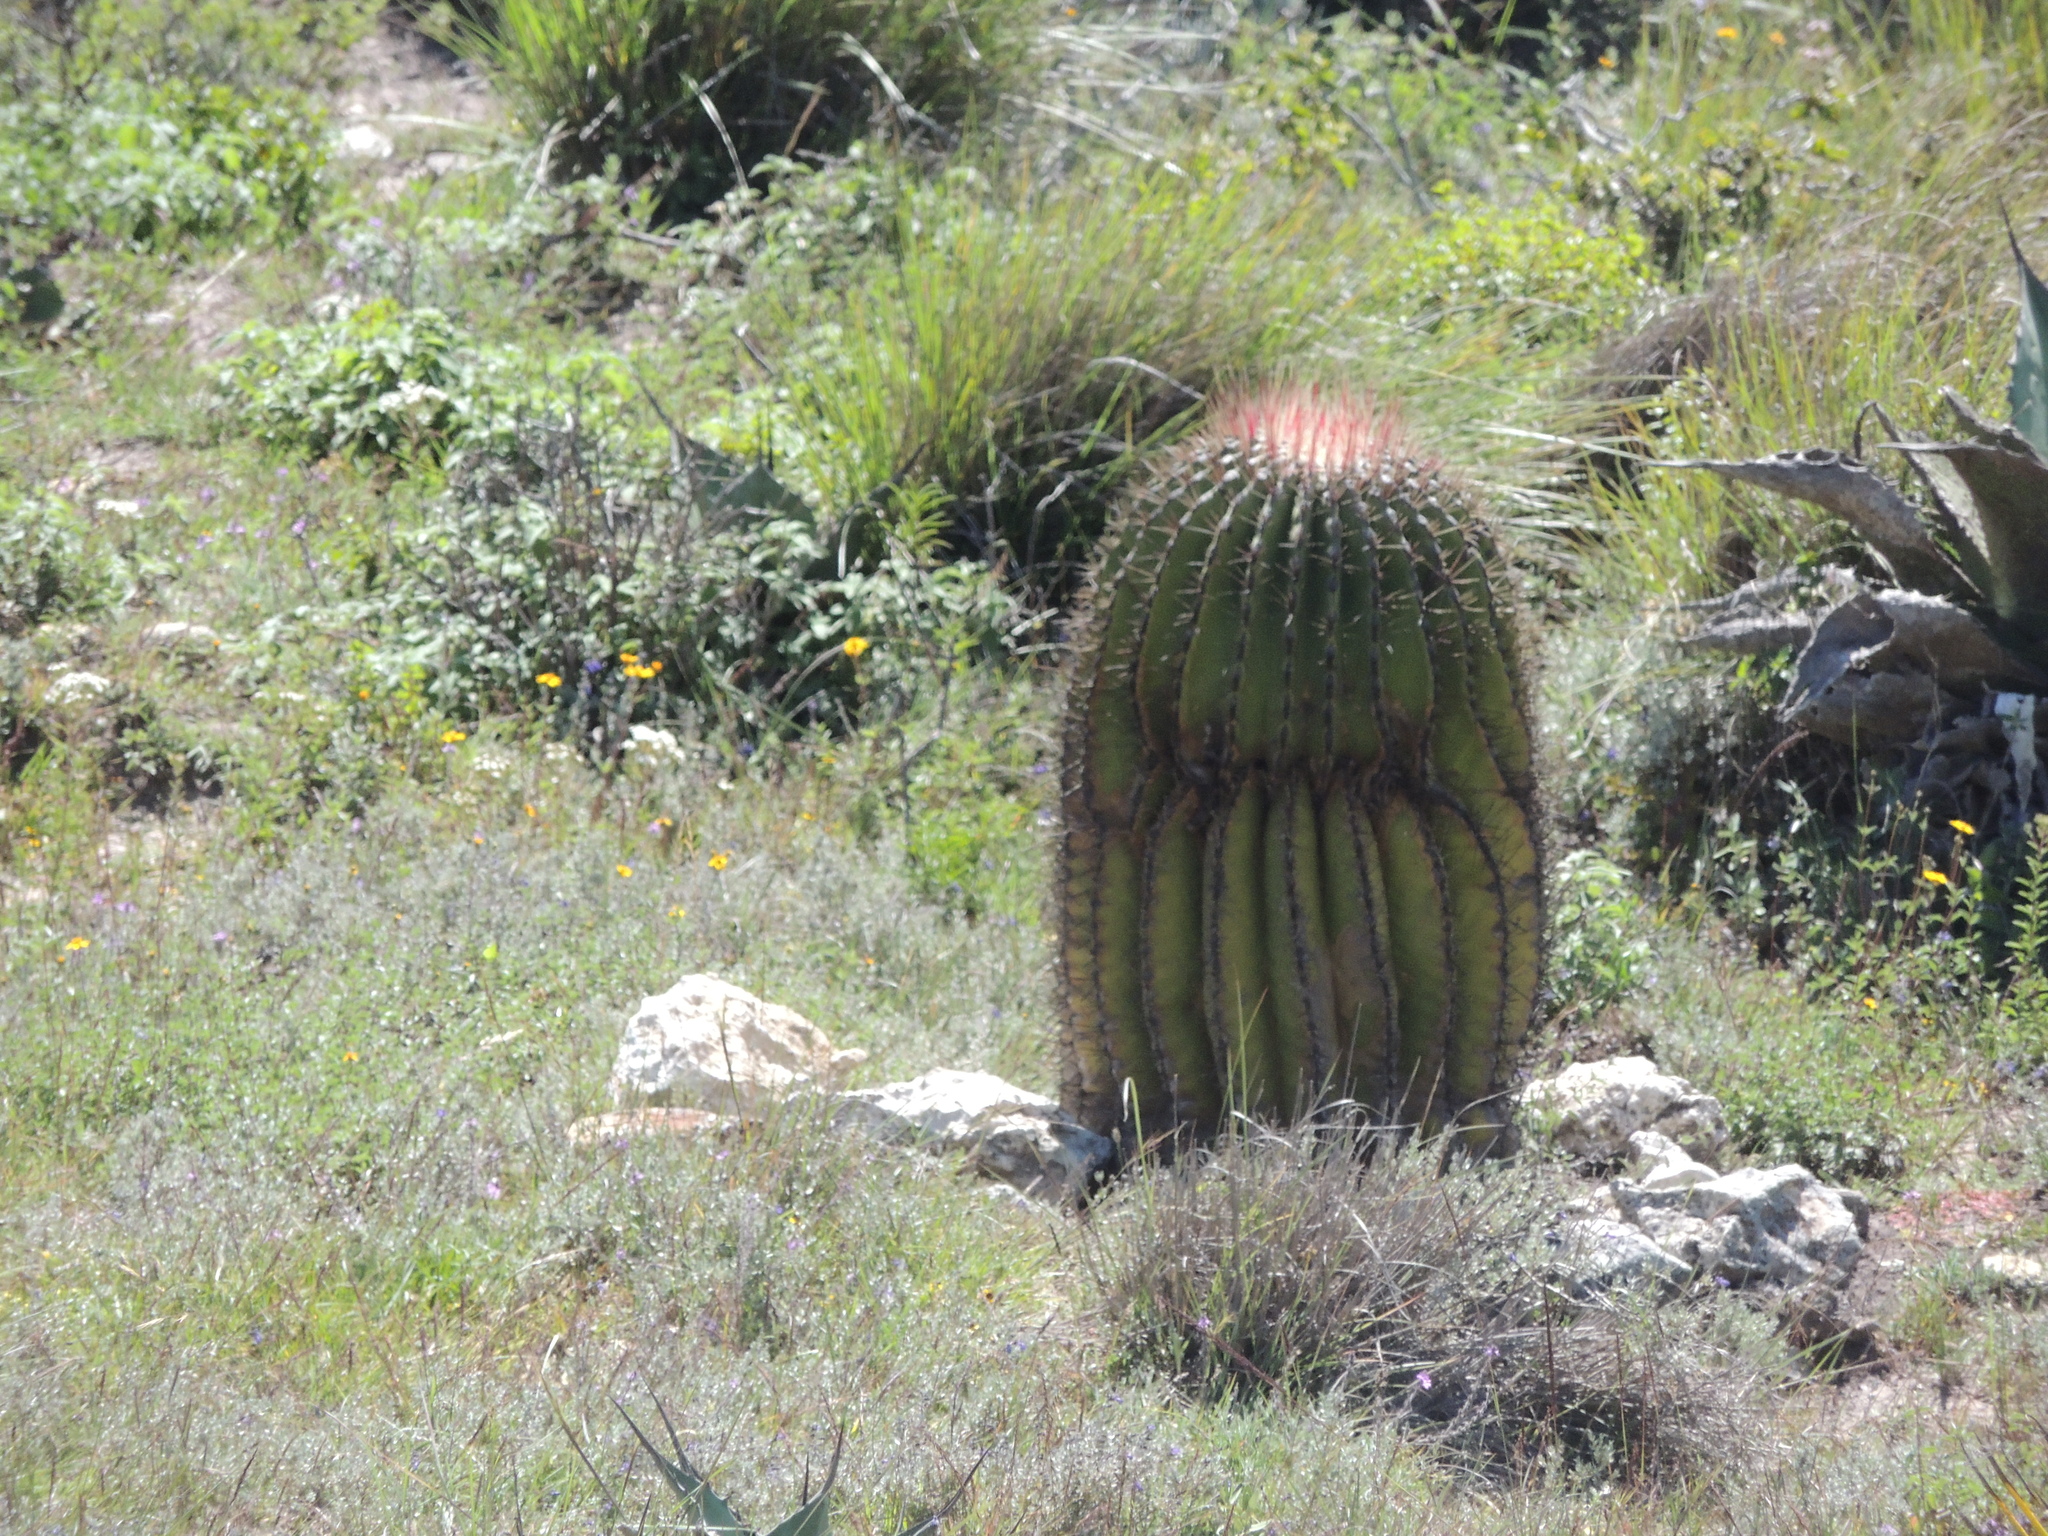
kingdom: Plantae
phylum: Tracheophyta
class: Magnoliopsida
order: Caryophyllales
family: Cactaceae
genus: Ferocactus
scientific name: Ferocactus haematacanthus
